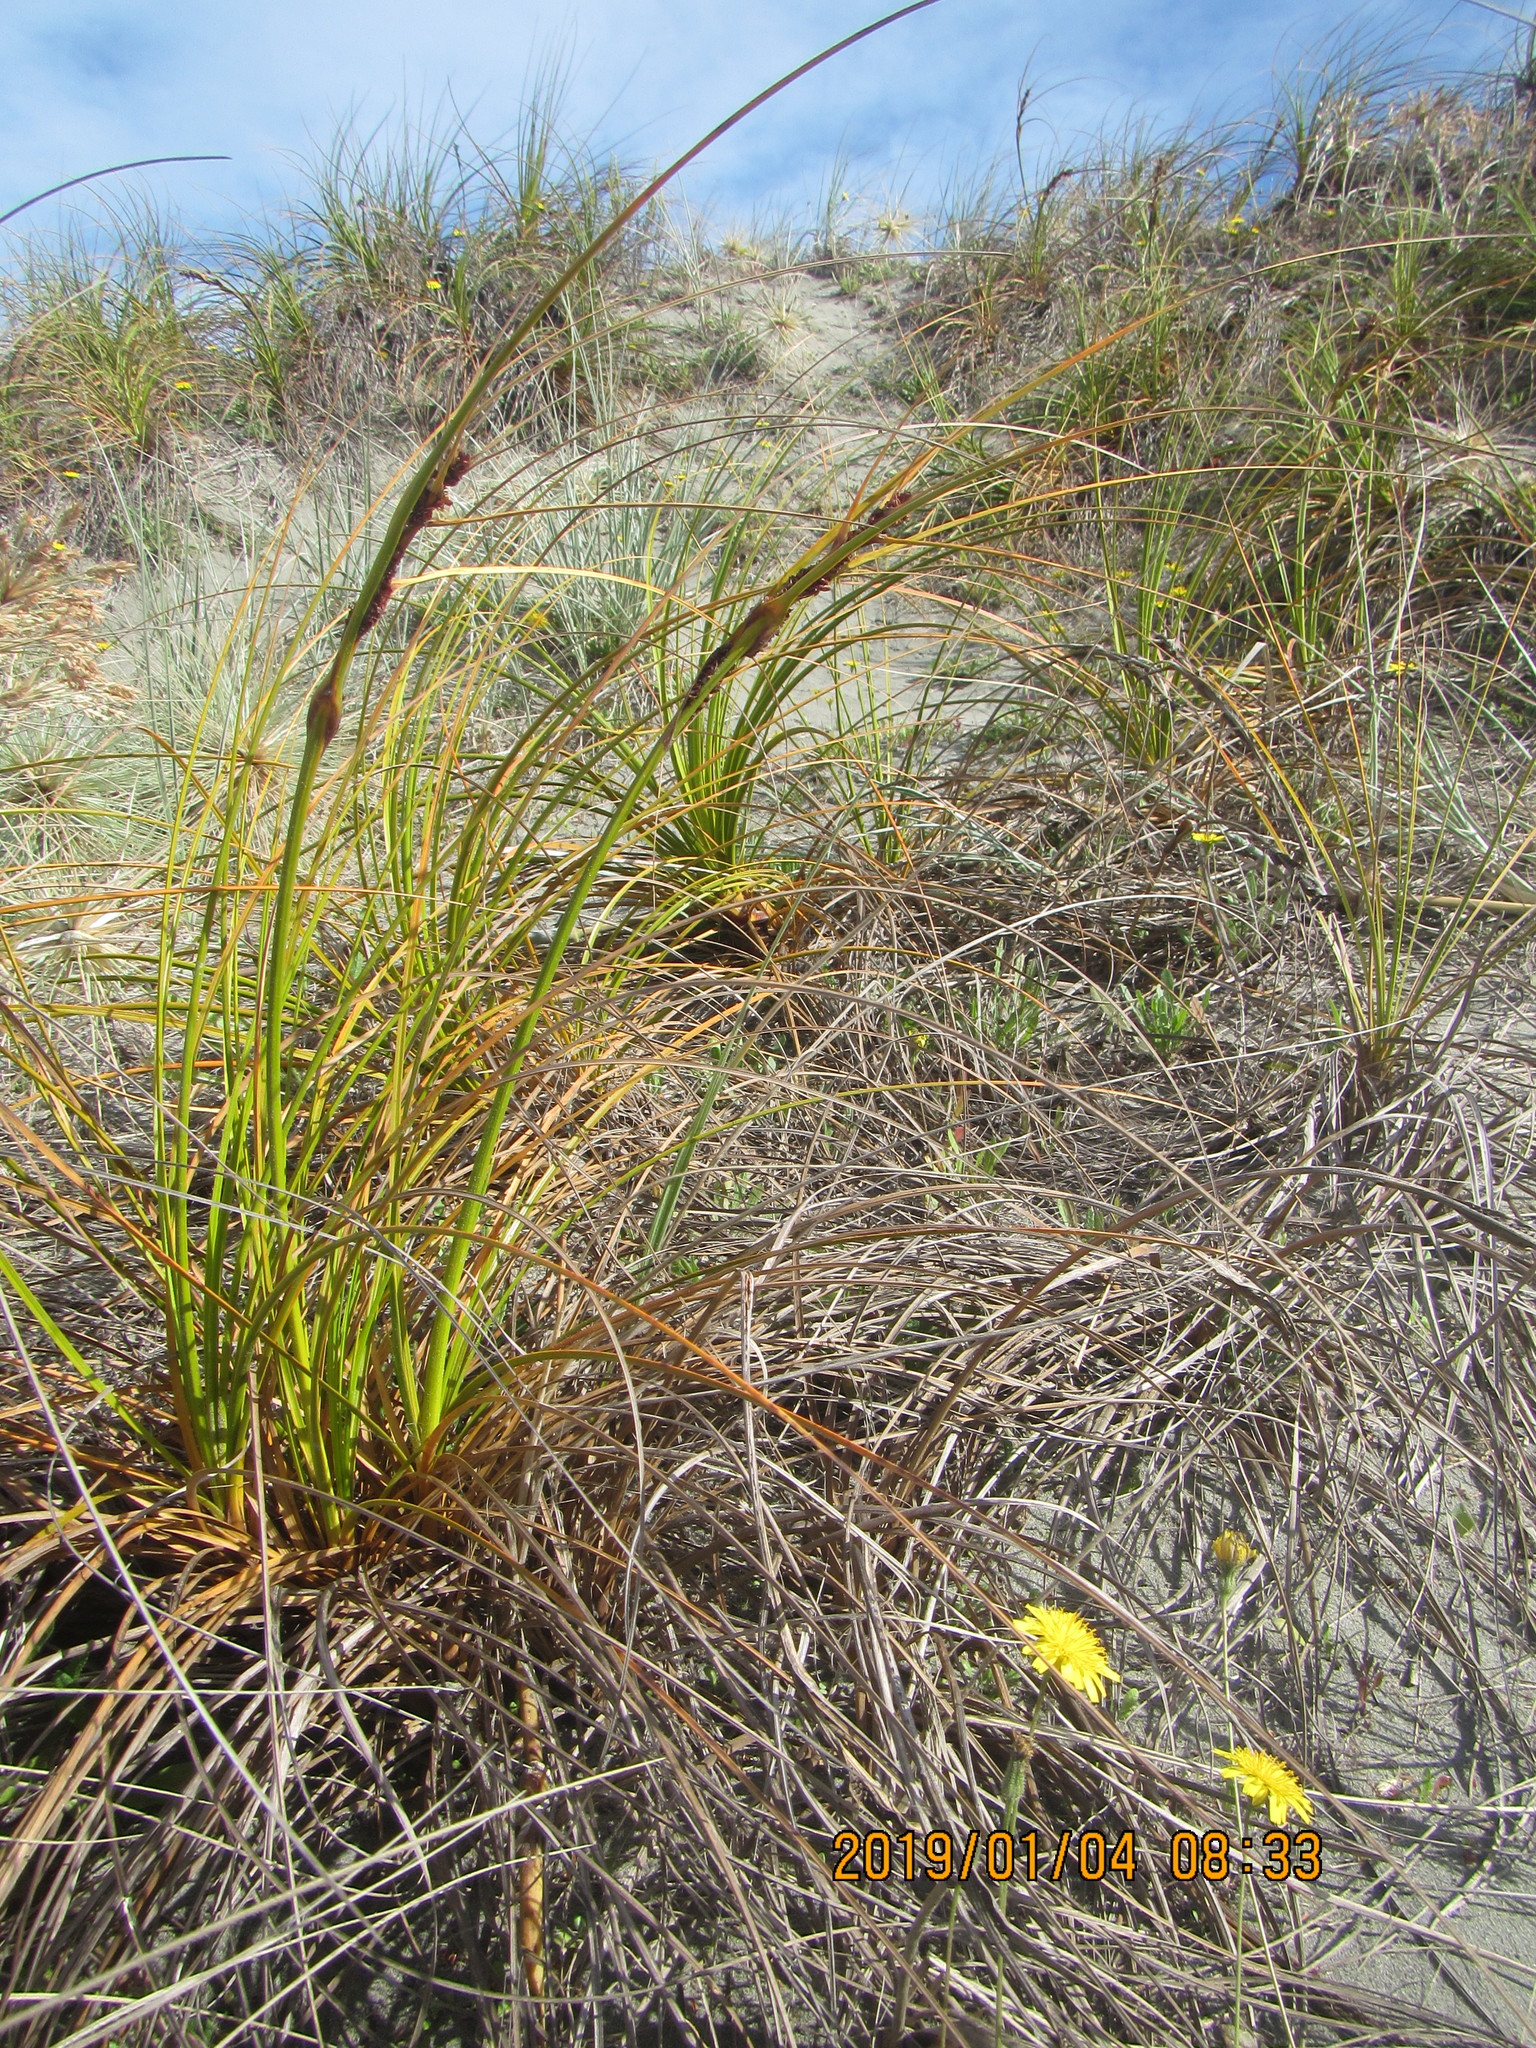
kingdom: Plantae
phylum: Tracheophyta
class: Liliopsida
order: Poales
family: Cyperaceae
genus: Ficinia
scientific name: Ficinia spiralis
